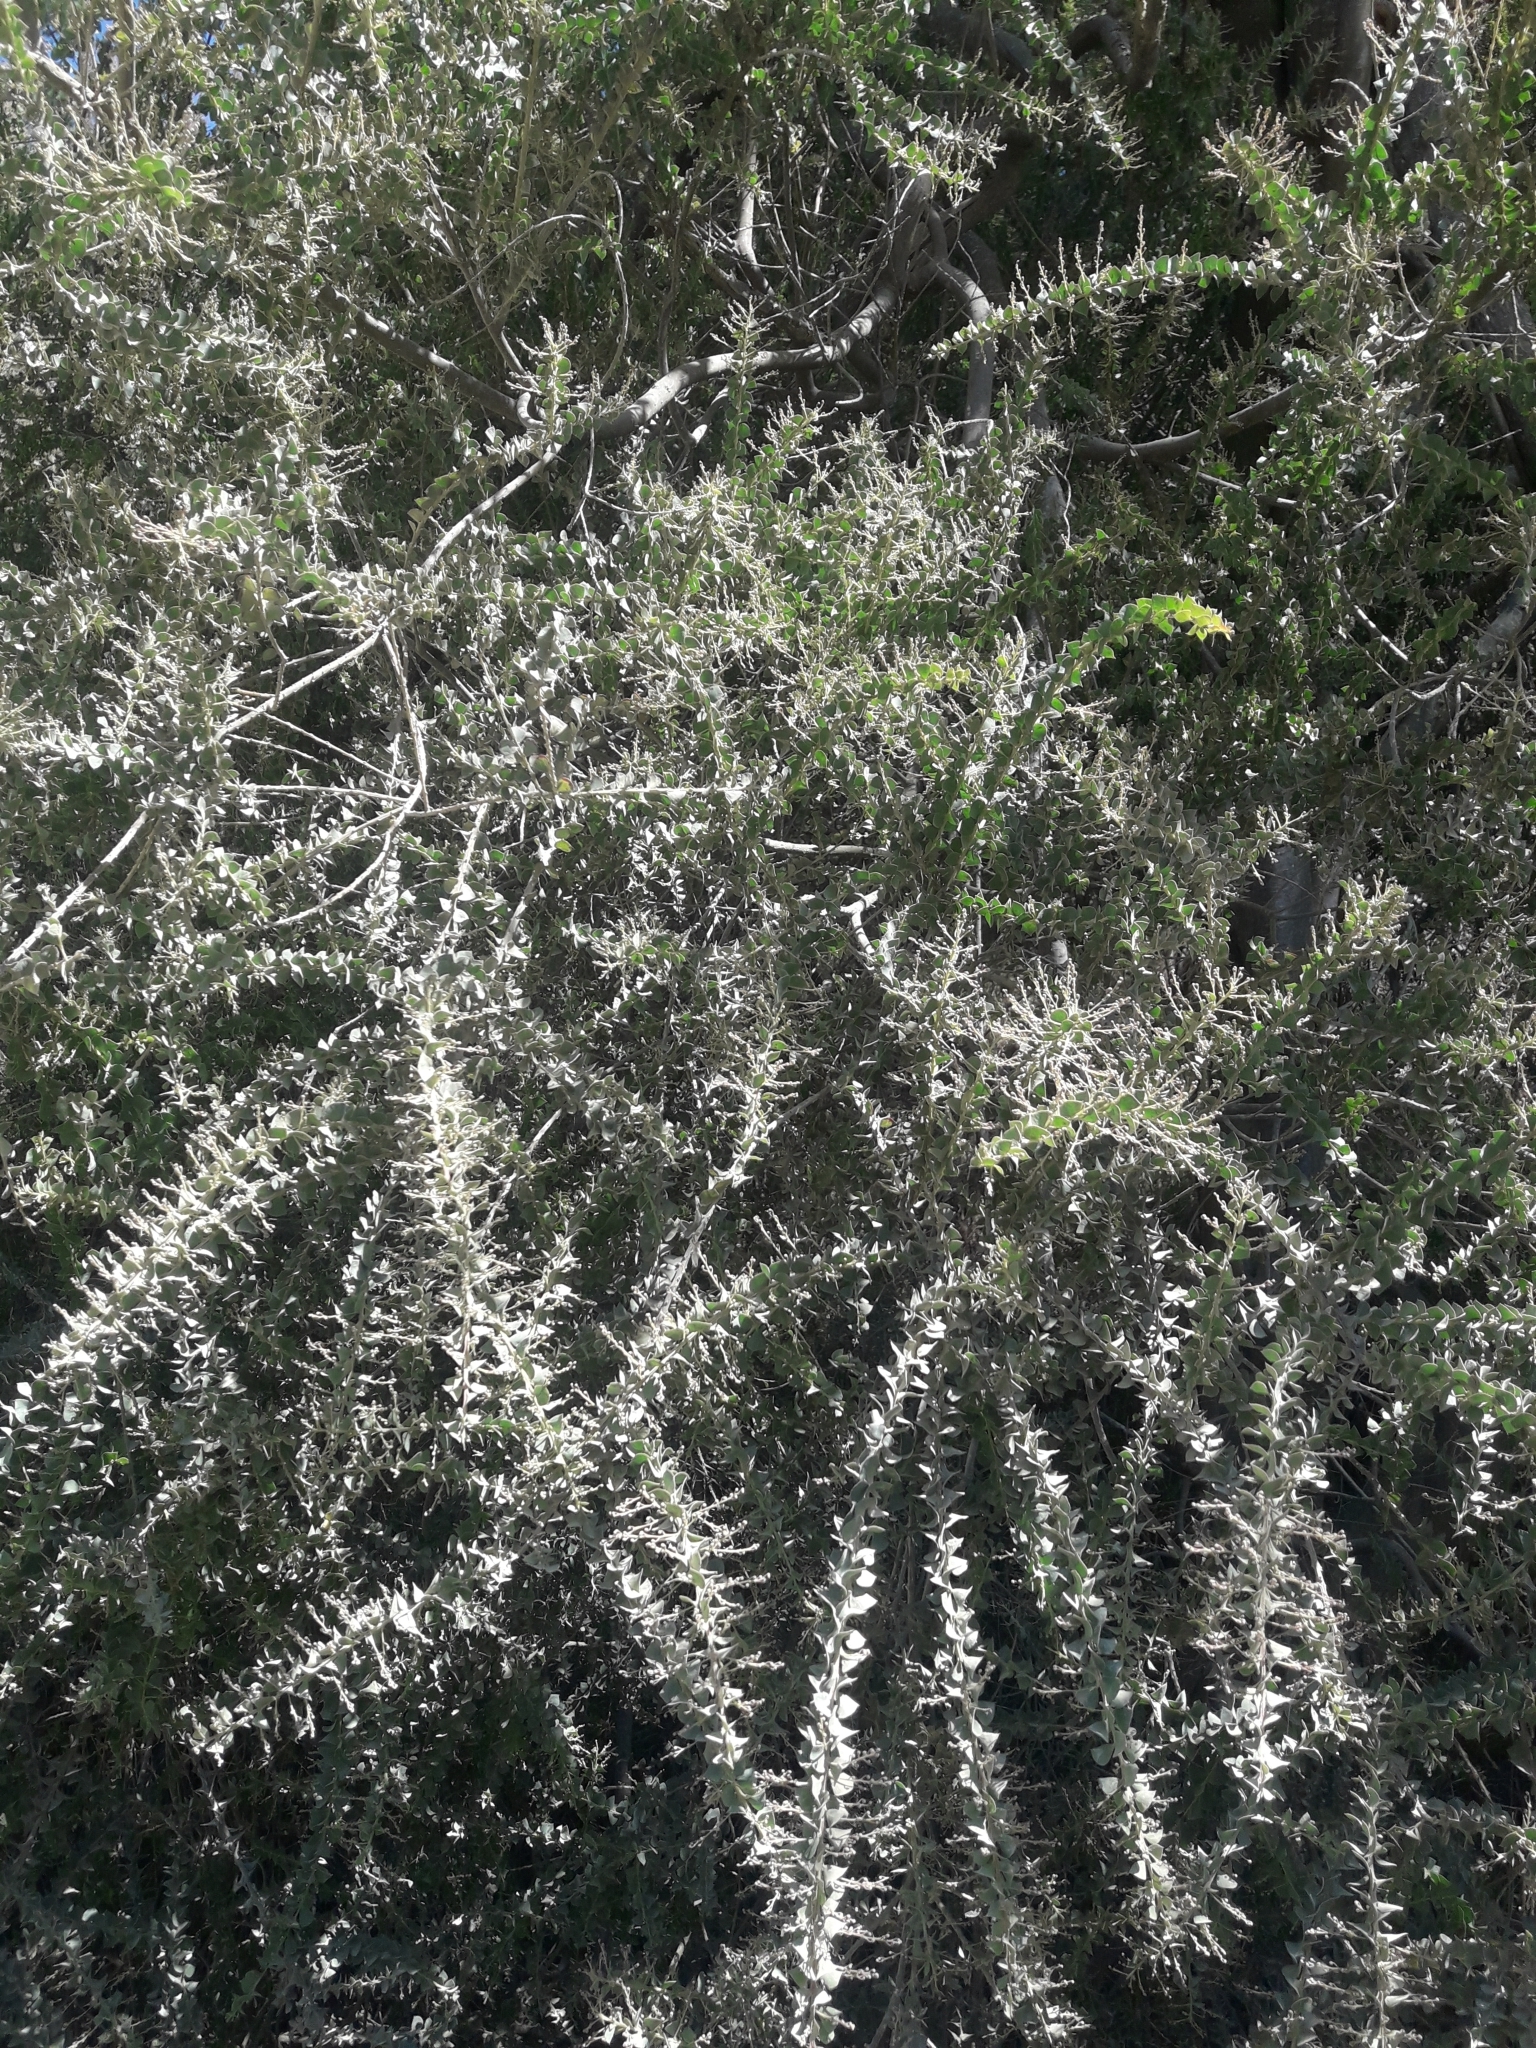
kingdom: Plantae
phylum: Tracheophyta
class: Magnoliopsida
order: Fabales
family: Fabaceae
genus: Acacia
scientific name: Acacia pravissima
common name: Tumut wattle
